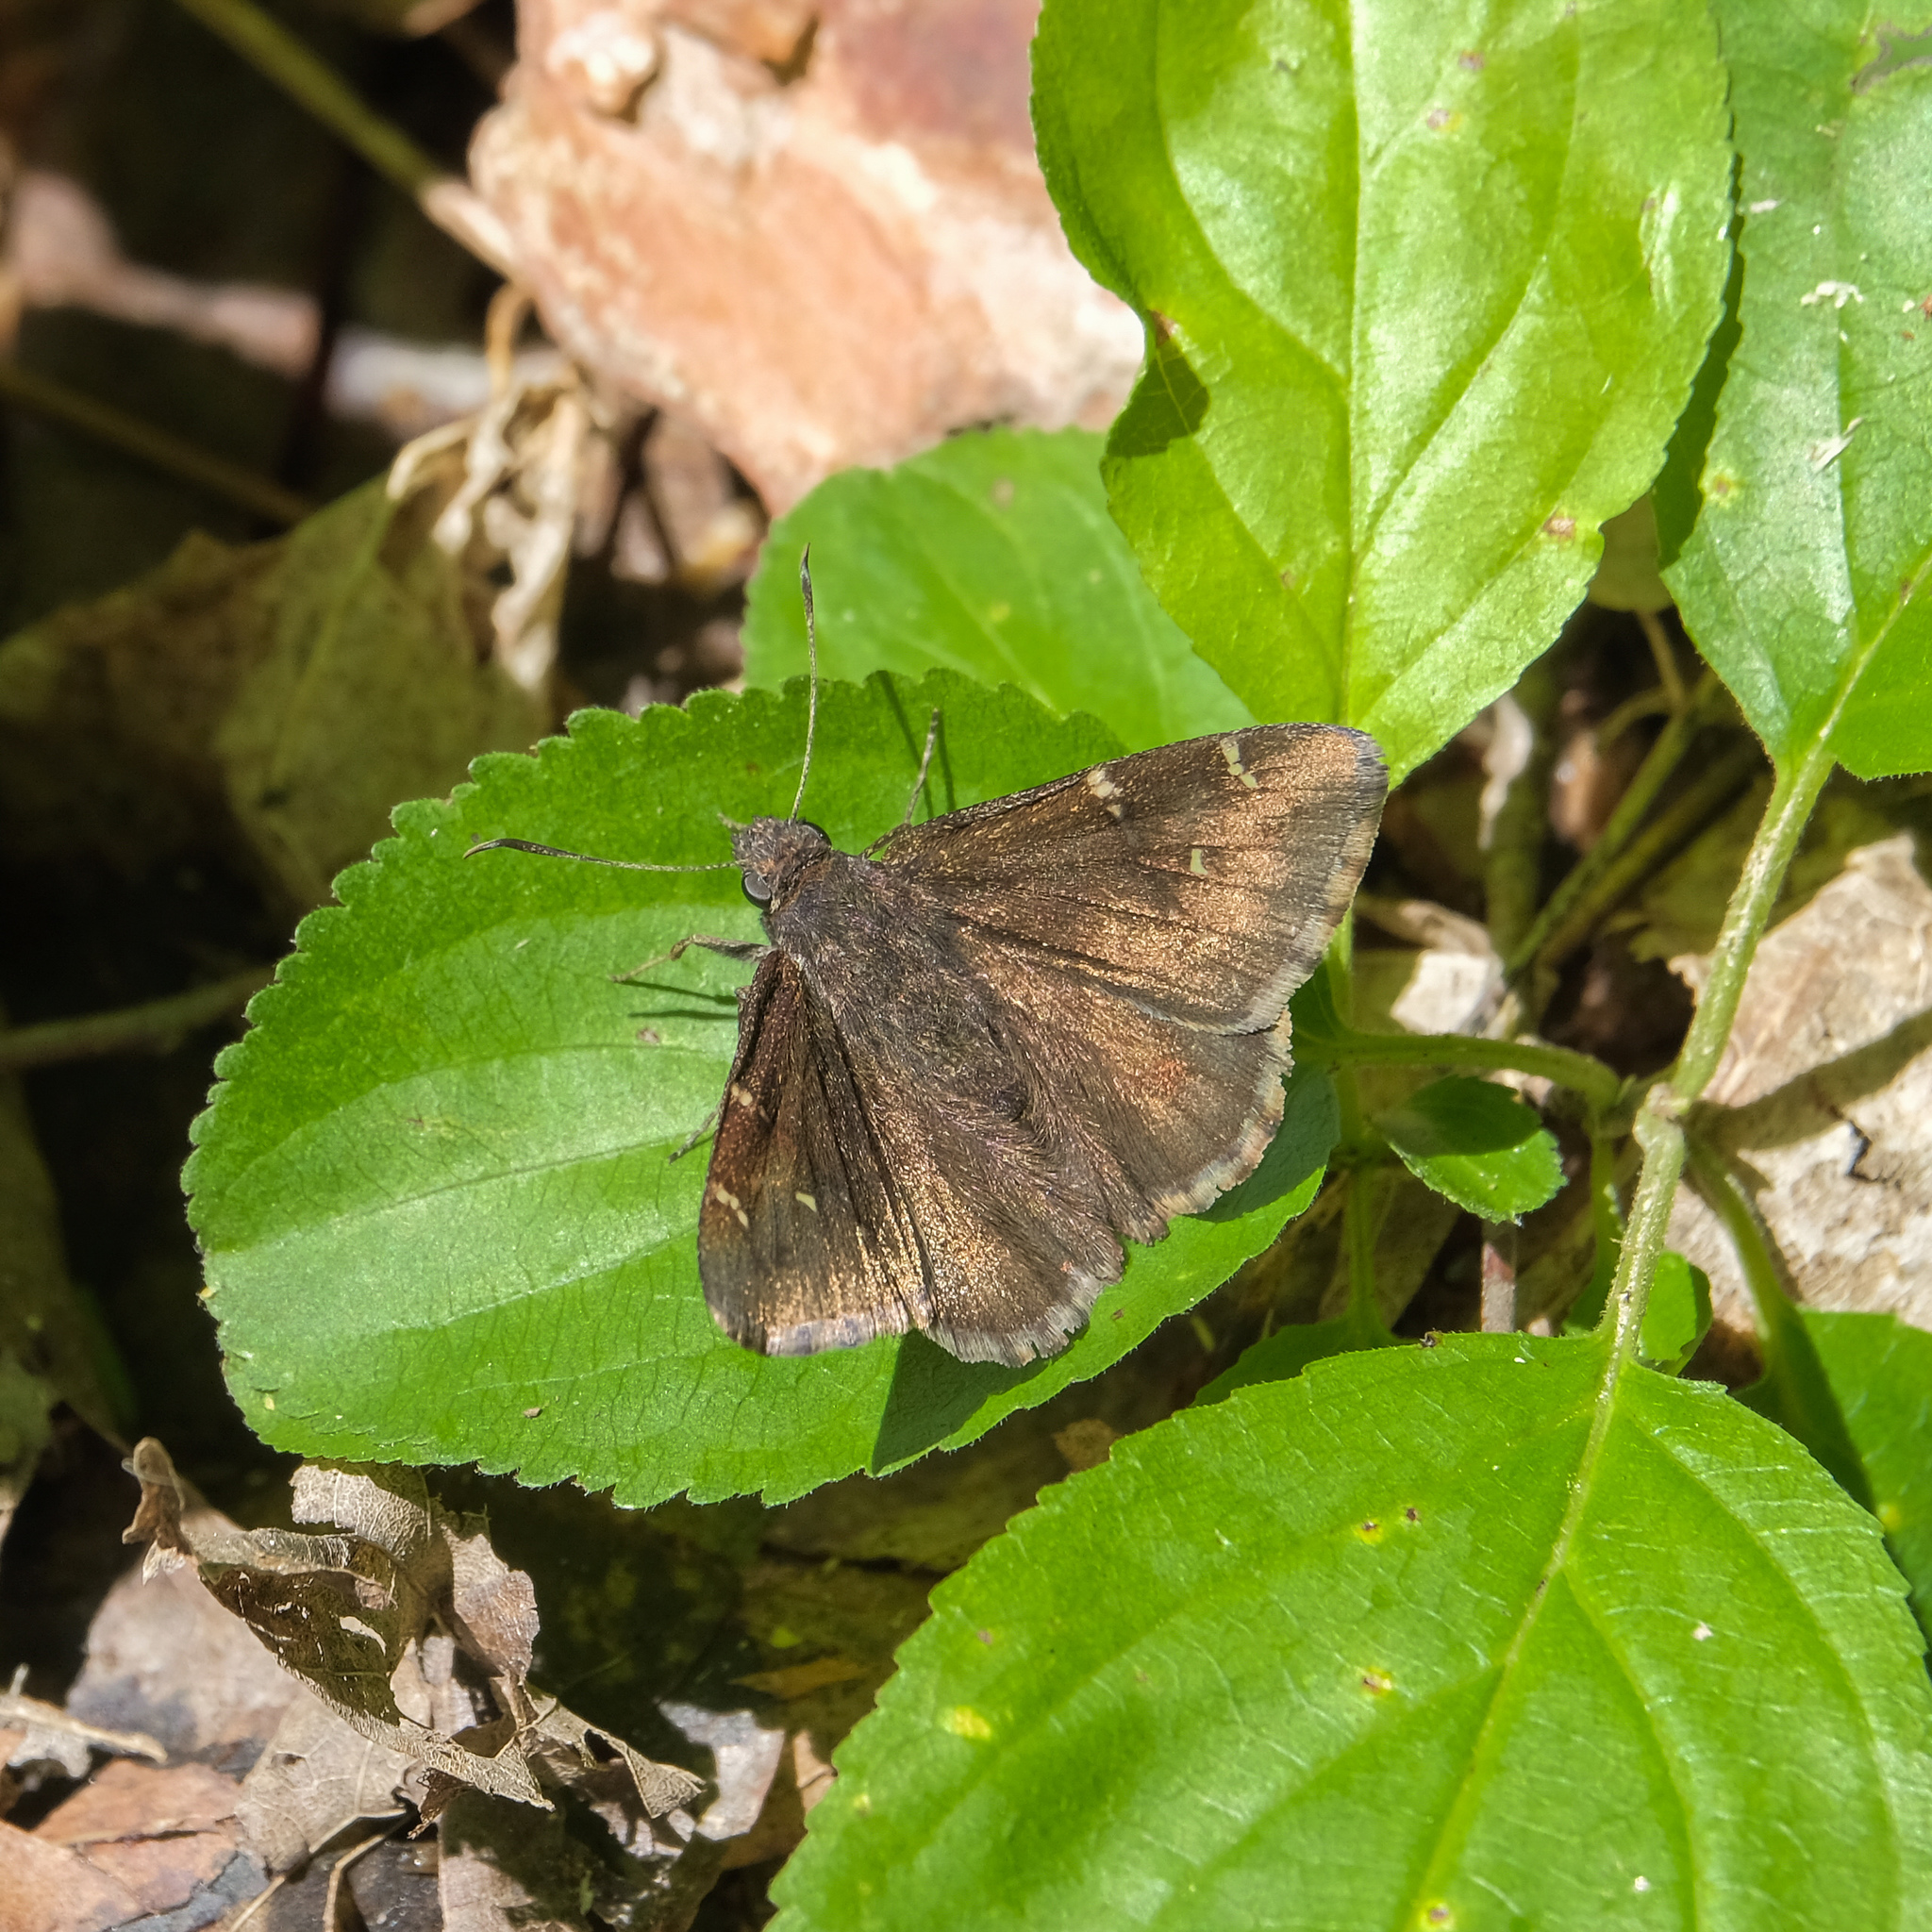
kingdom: Animalia
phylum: Arthropoda
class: Insecta
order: Lepidoptera
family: Hesperiidae
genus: Thorybes
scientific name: Thorybes pylades
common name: Northern cloudywing
